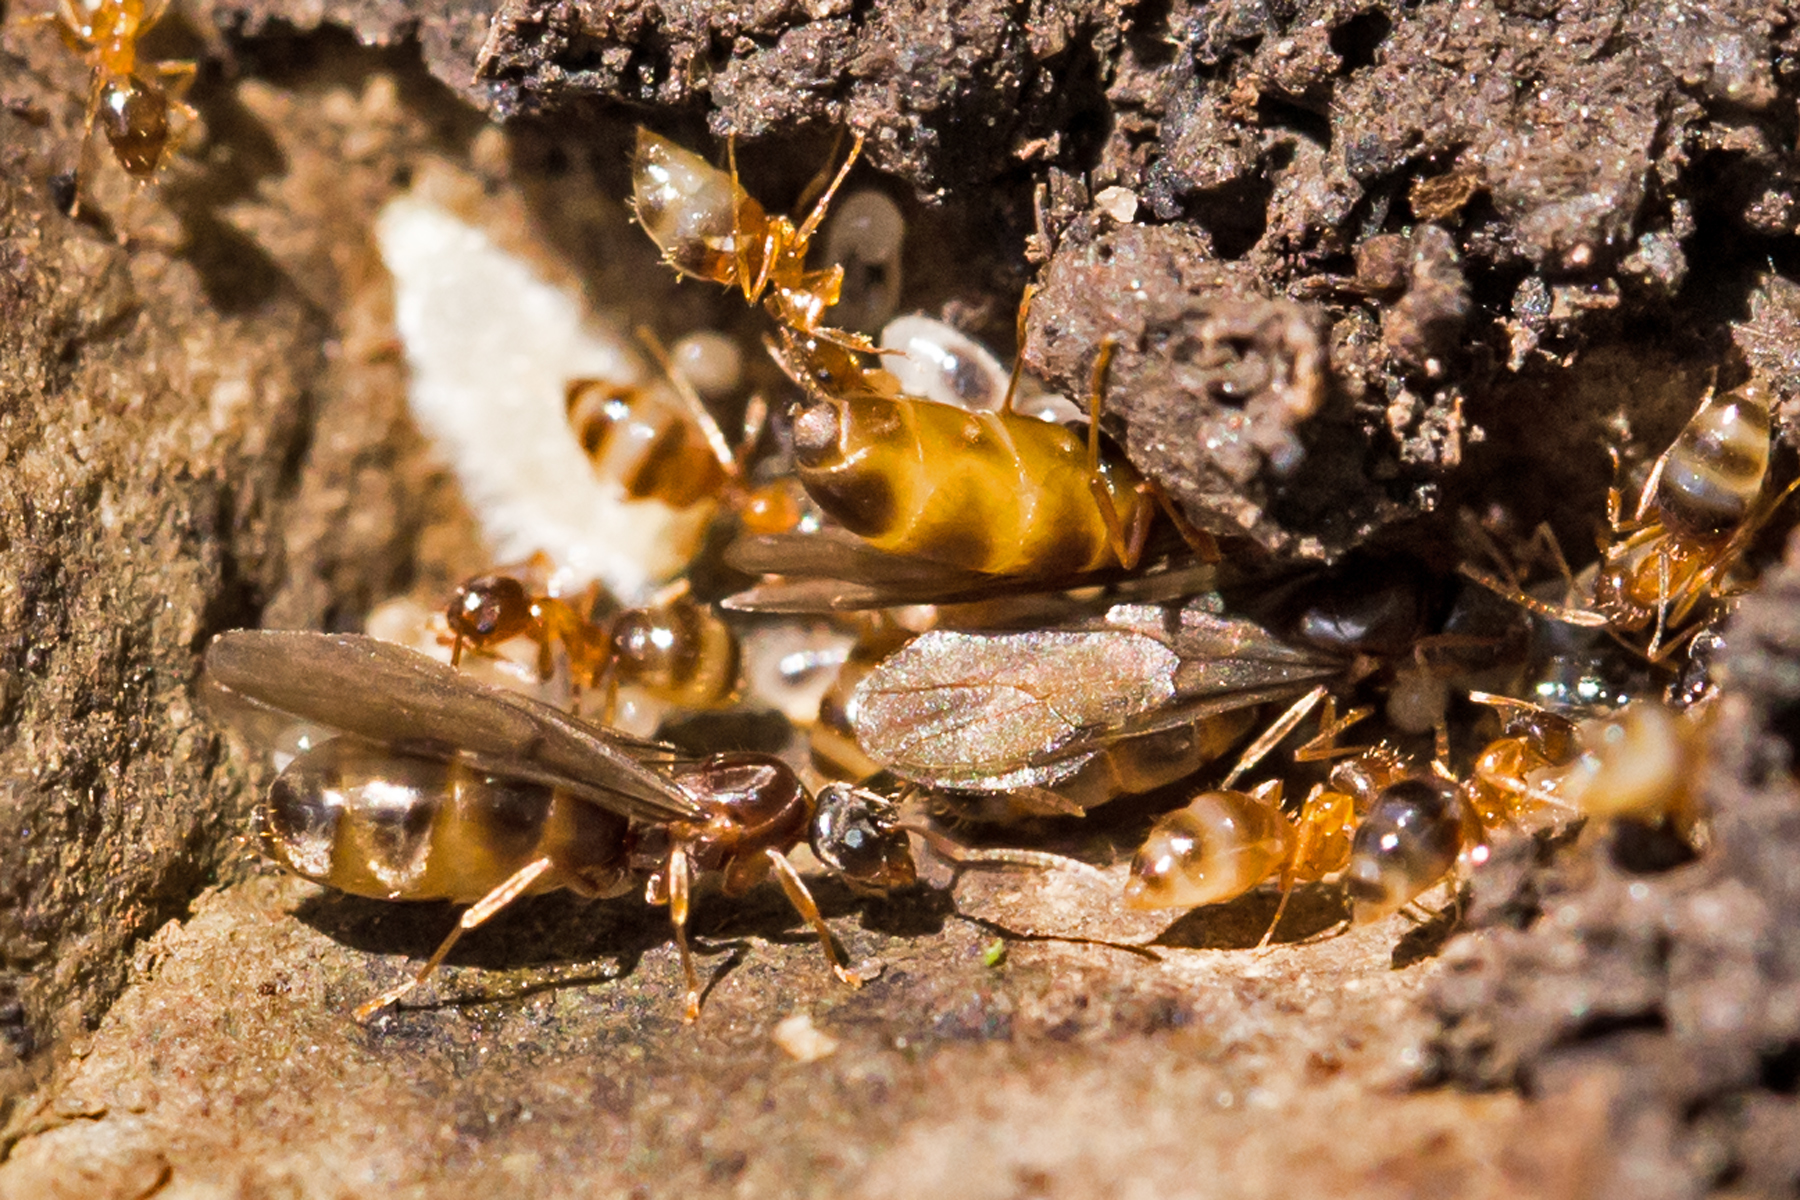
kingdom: Animalia
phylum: Arthropoda
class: Insecta
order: Hymenoptera
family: Formicidae
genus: Paratrechina
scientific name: Paratrechina flavipes
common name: Eastern asian formicine ant
